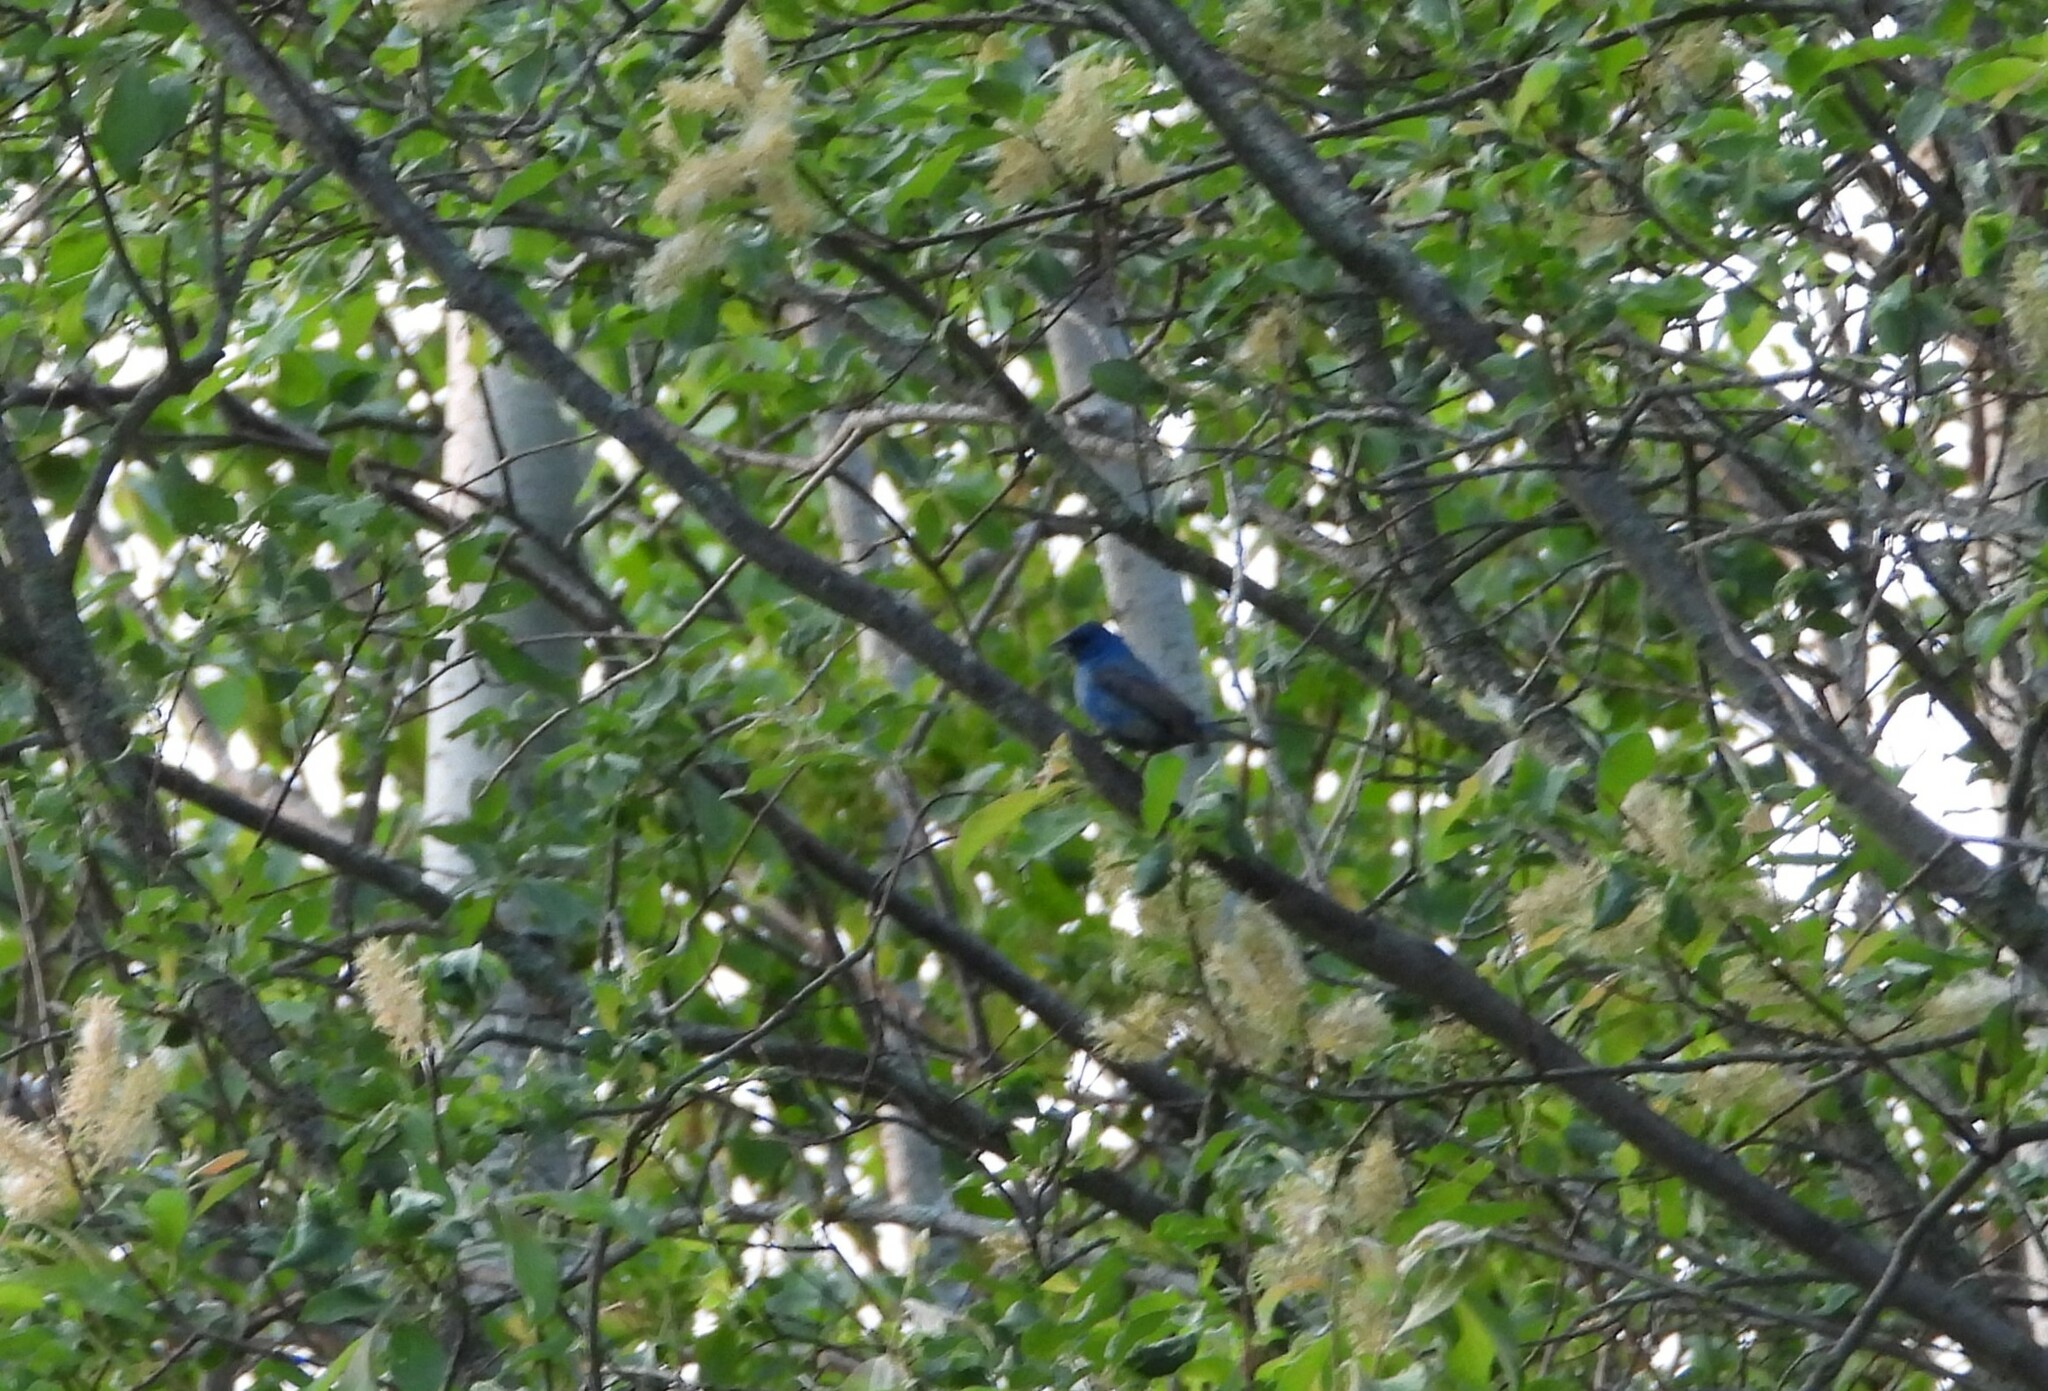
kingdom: Animalia
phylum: Chordata
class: Aves
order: Passeriformes
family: Cardinalidae
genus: Passerina
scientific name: Passerina cyanea
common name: Indigo bunting
